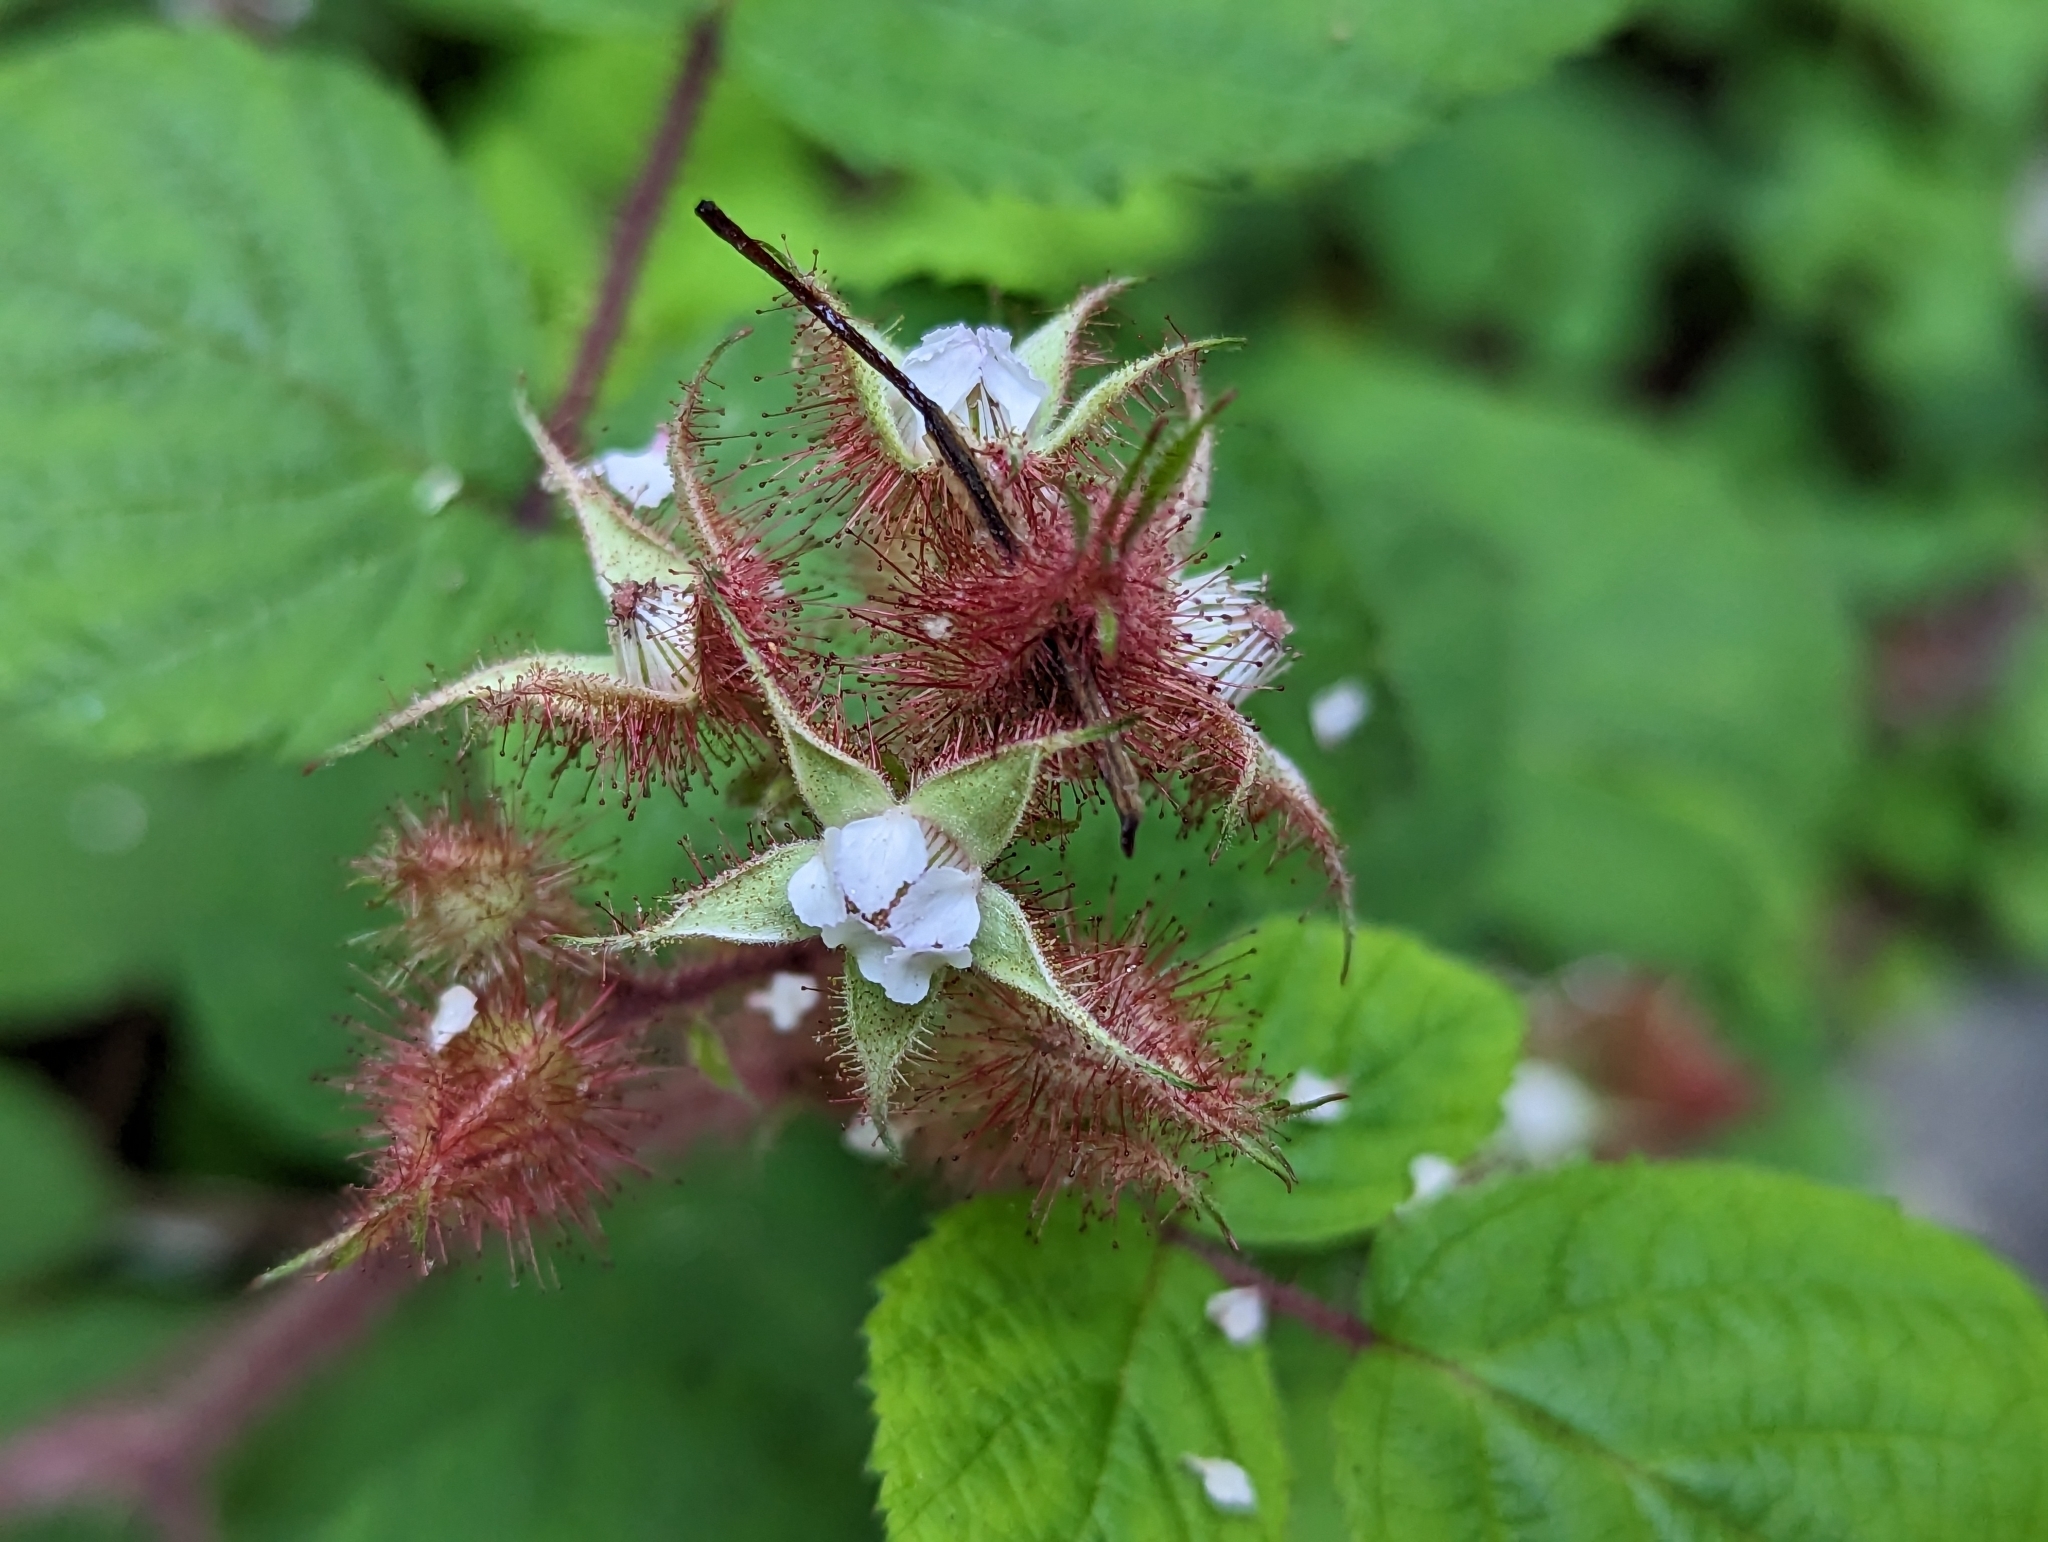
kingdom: Plantae
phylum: Tracheophyta
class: Magnoliopsida
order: Rosales
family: Rosaceae
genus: Rubus
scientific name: Rubus phoenicolasius
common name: Japanese wineberry
